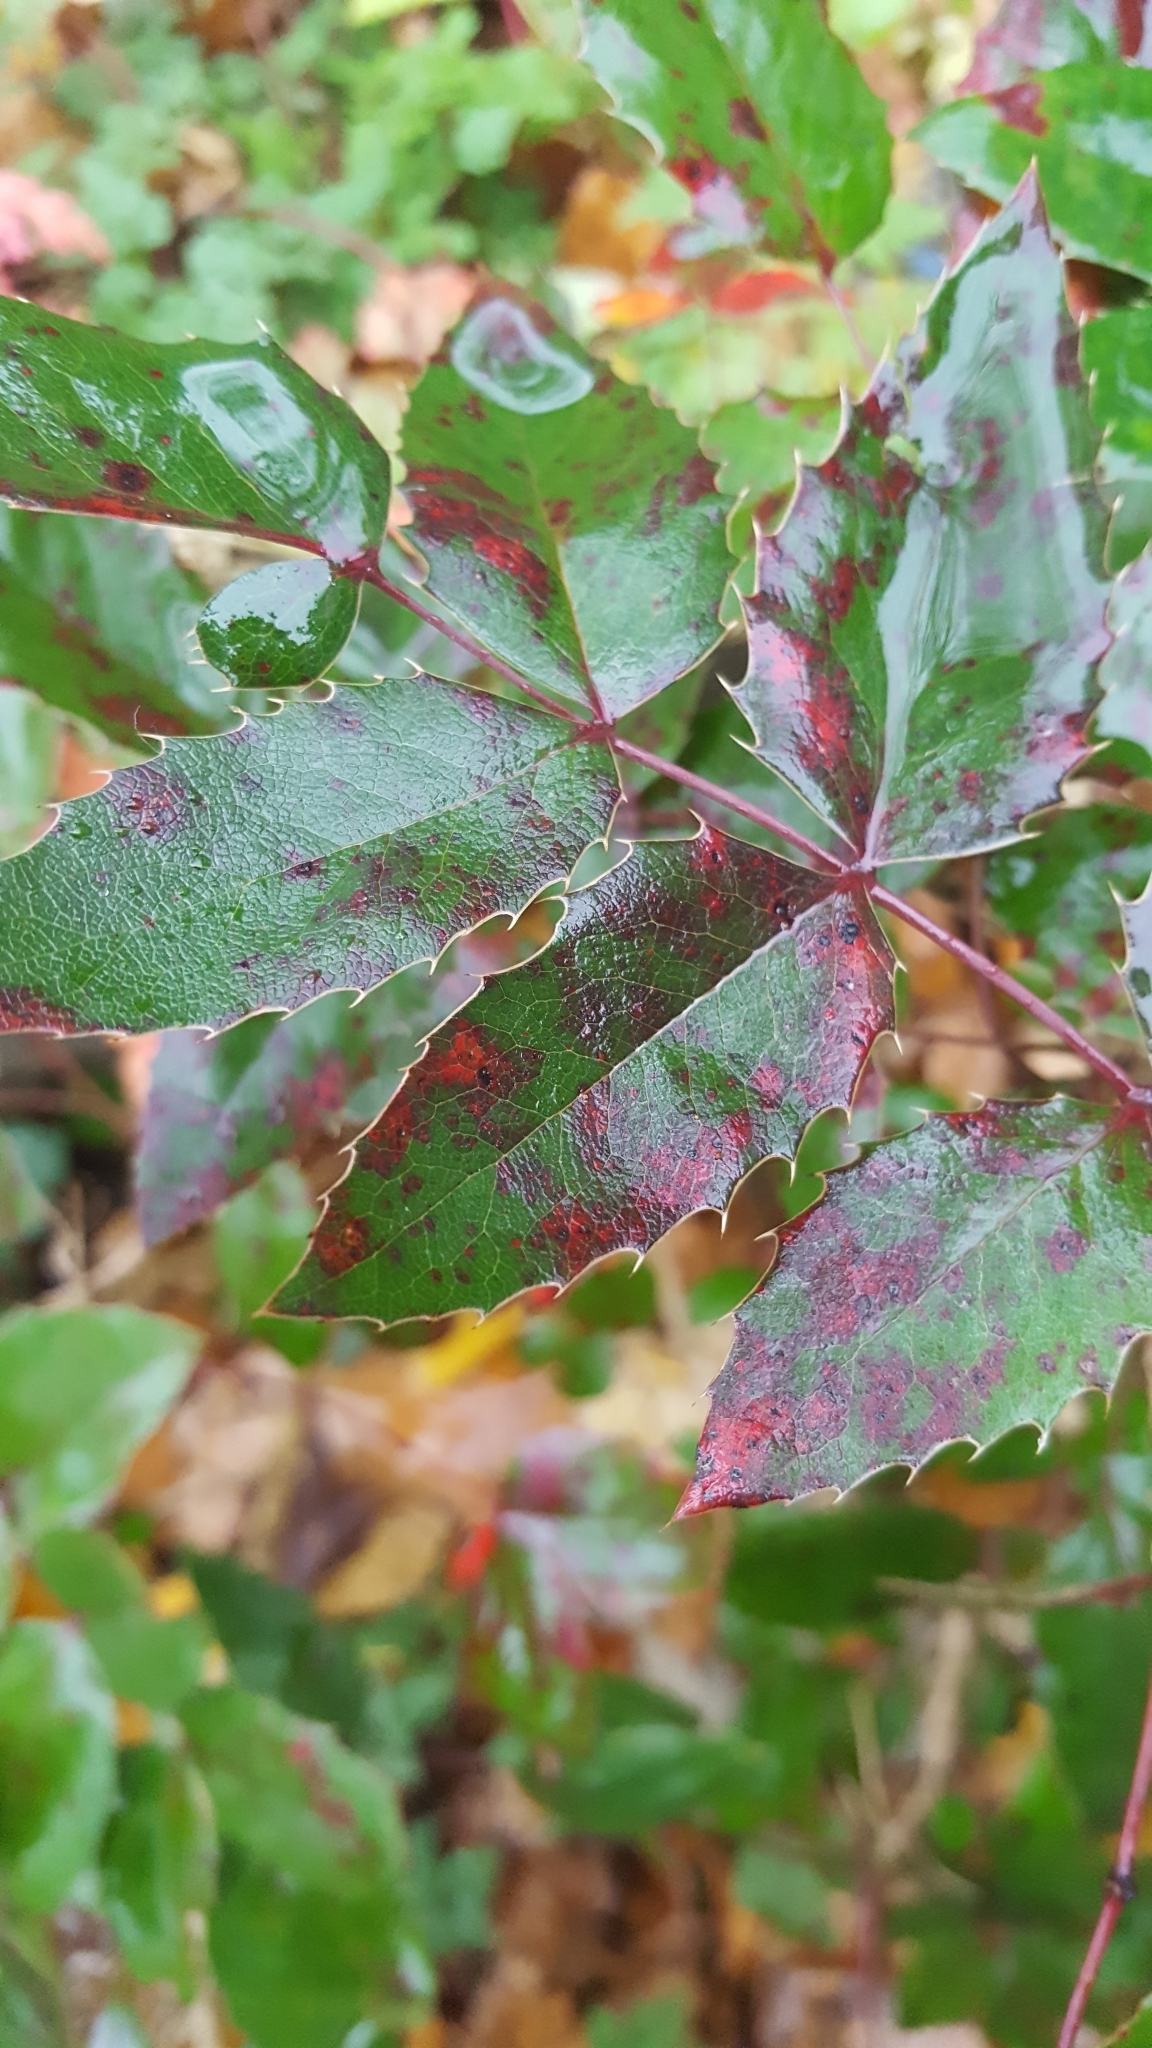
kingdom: Plantae
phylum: Tracheophyta
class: Magnoliopsida
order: Ranunculales
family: Berberidaceae
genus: Mahonia
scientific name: Mahonia aquifolium
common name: Oregon-grape
